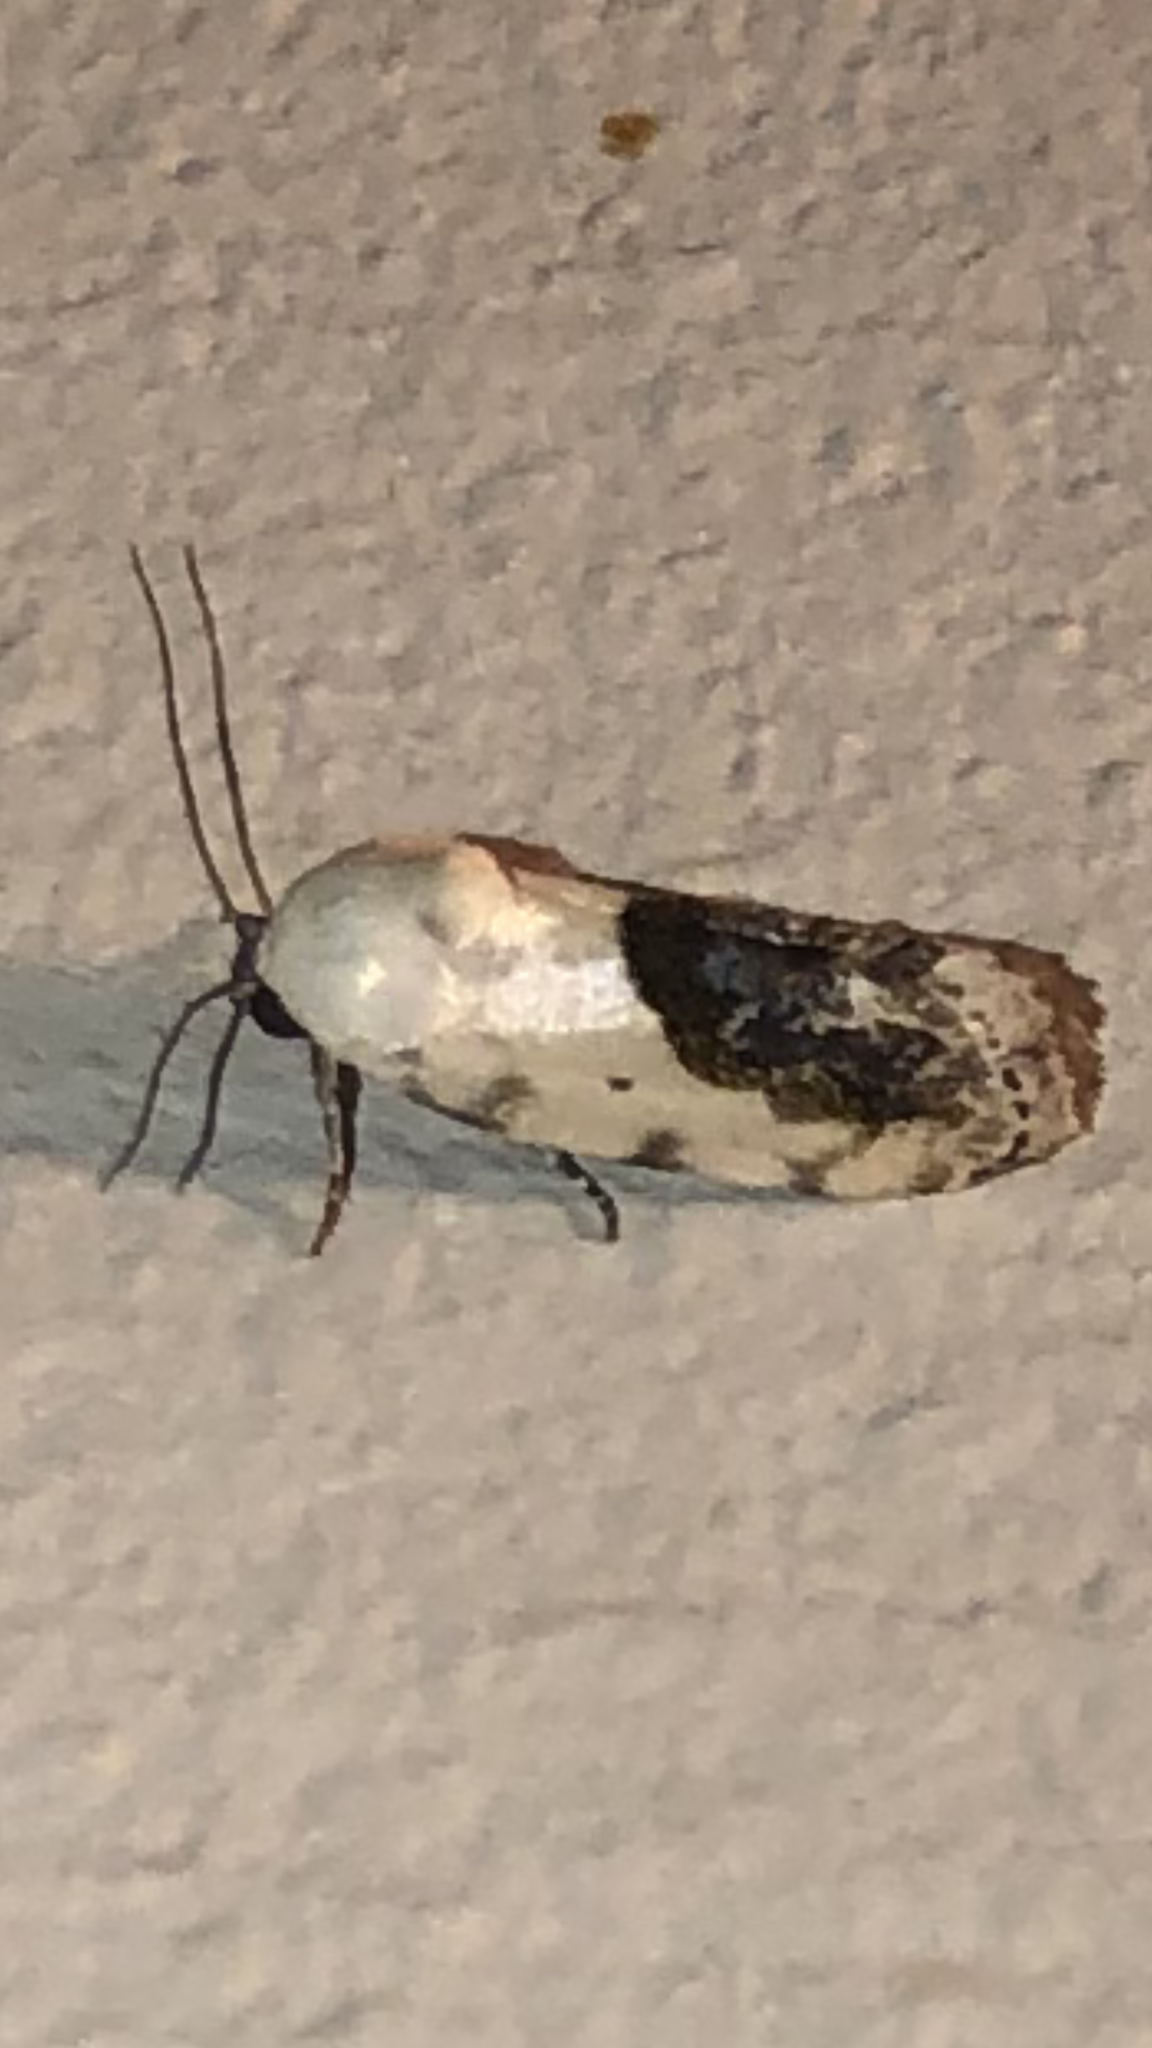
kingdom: Animalia
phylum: Arthropoda
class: Insecta
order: Lepidoptera
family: Noctuidae
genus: Acontia
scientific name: Acontia erastrioides
